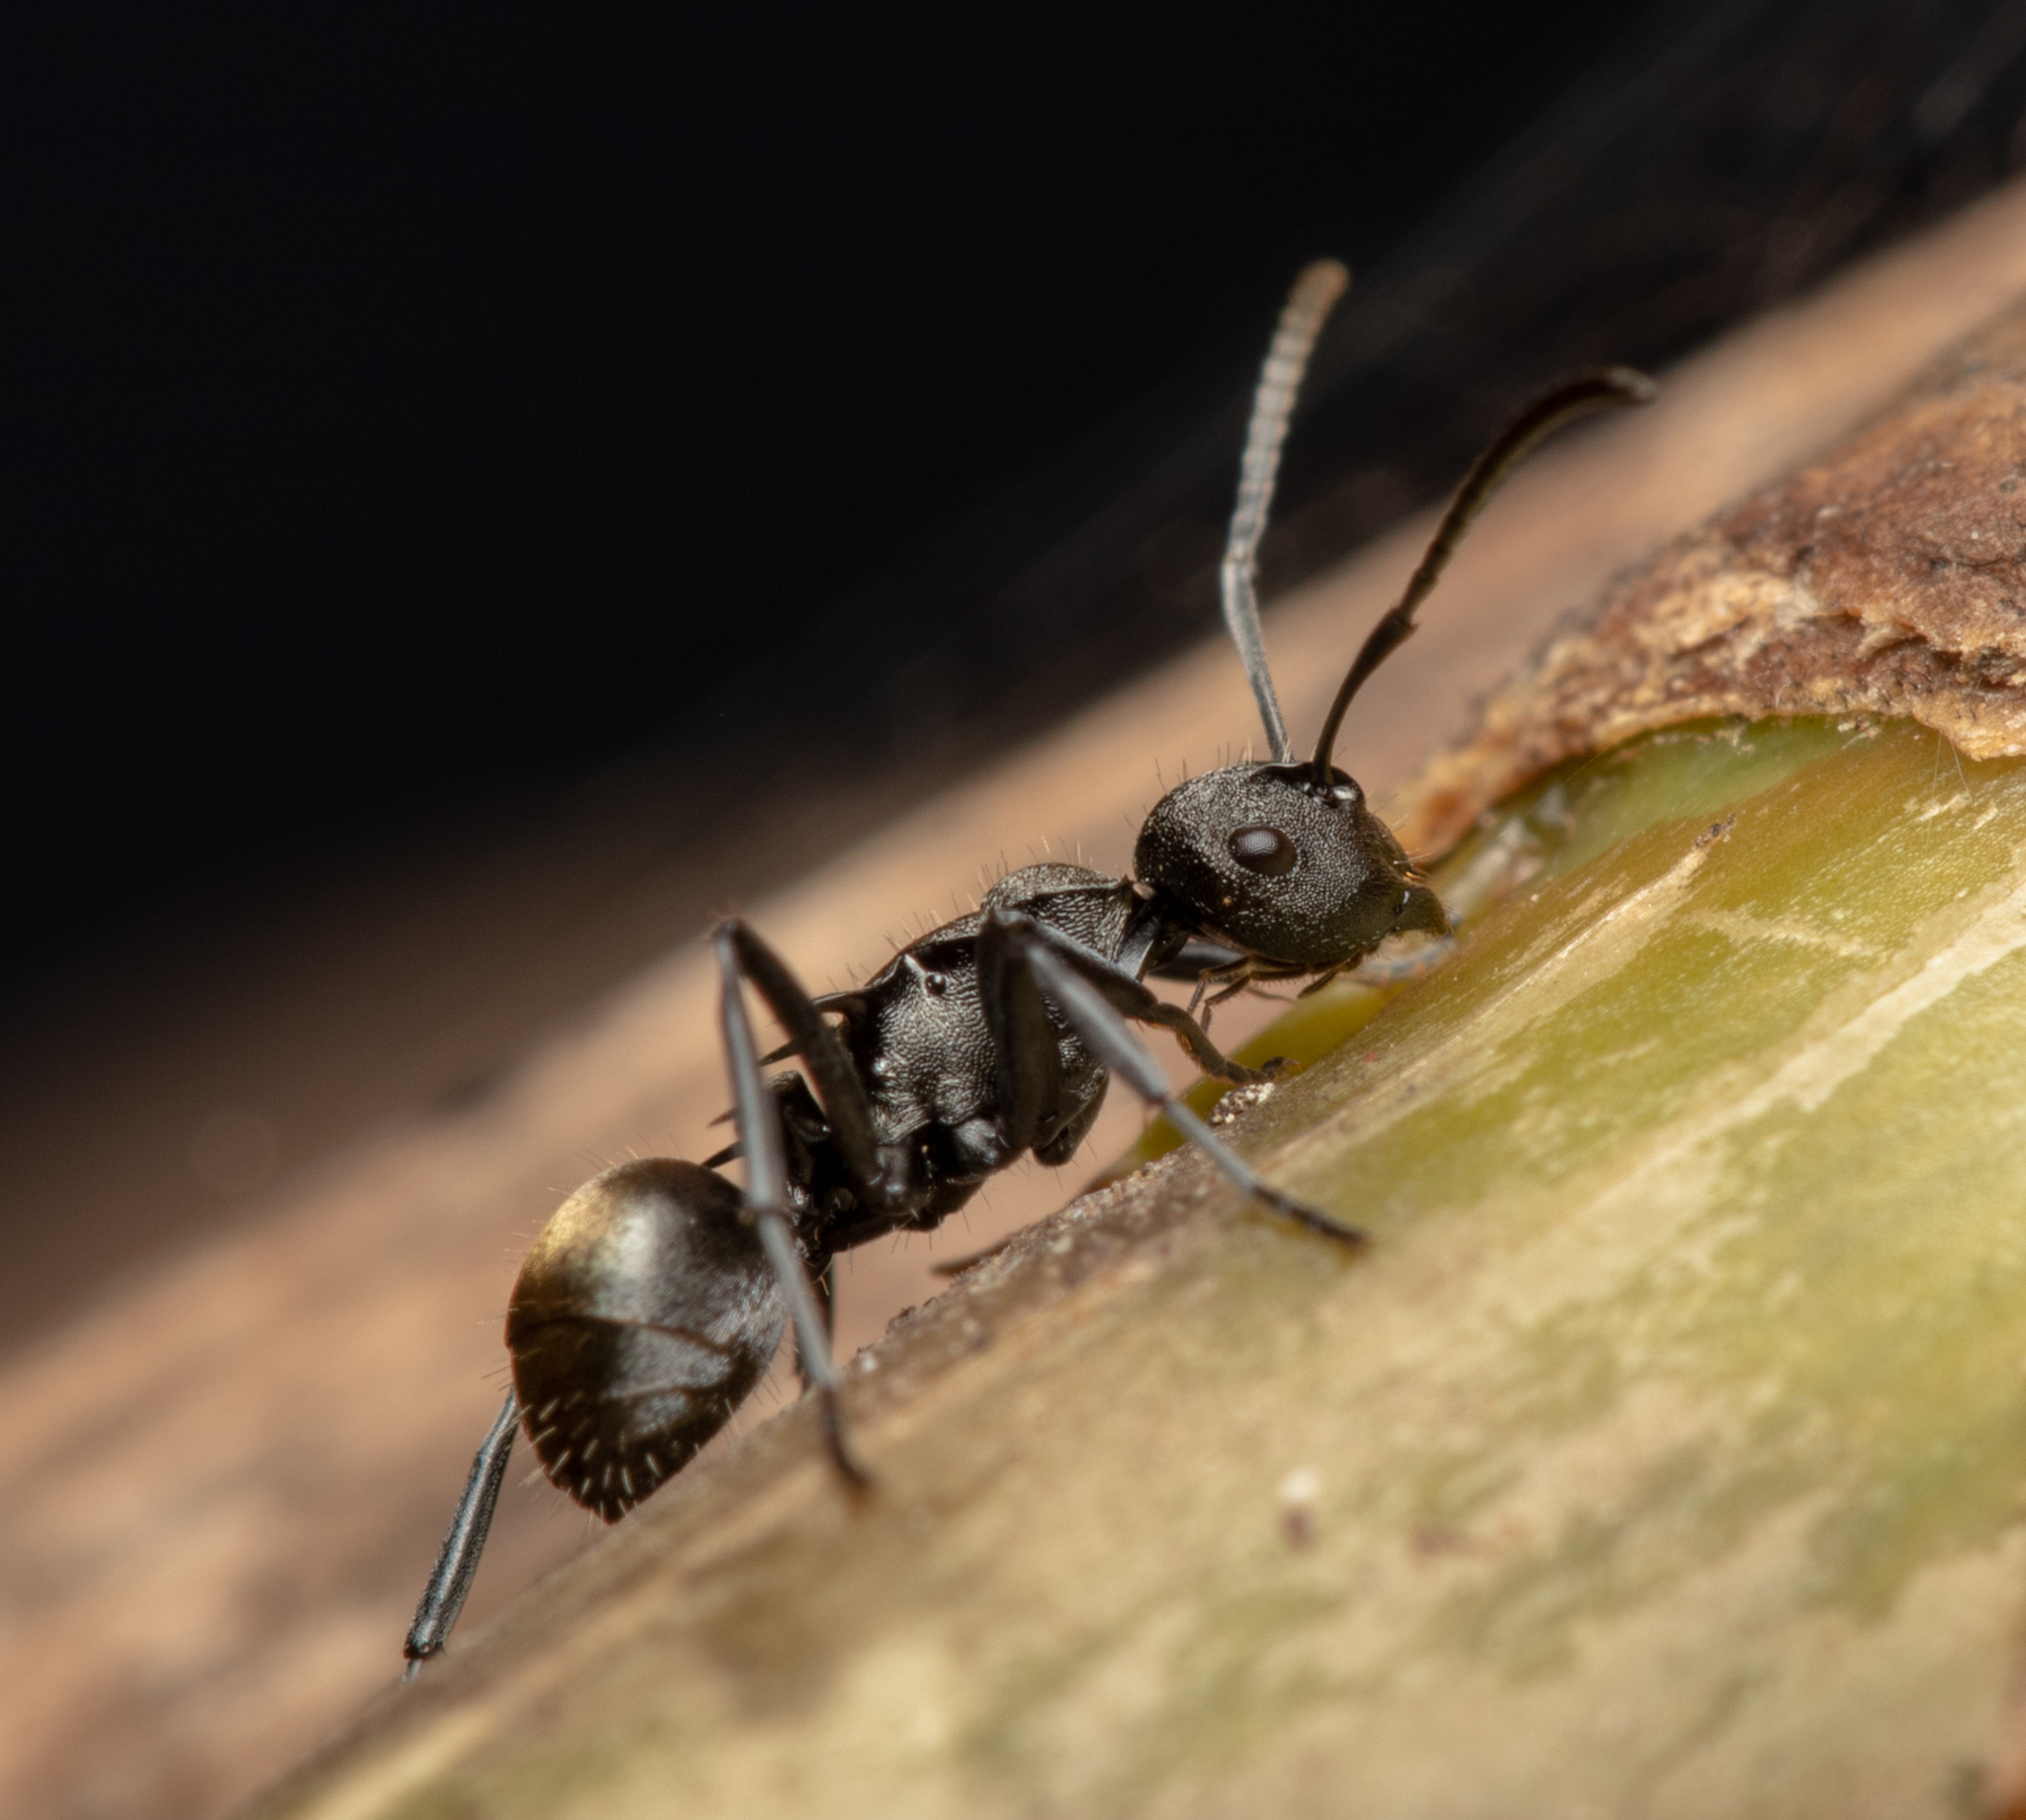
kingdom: Animalia
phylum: Arthropoda
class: Insecta
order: Hymenoptera
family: Formicidae
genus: Polyrhachis
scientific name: Polyrhachis mjobergi
